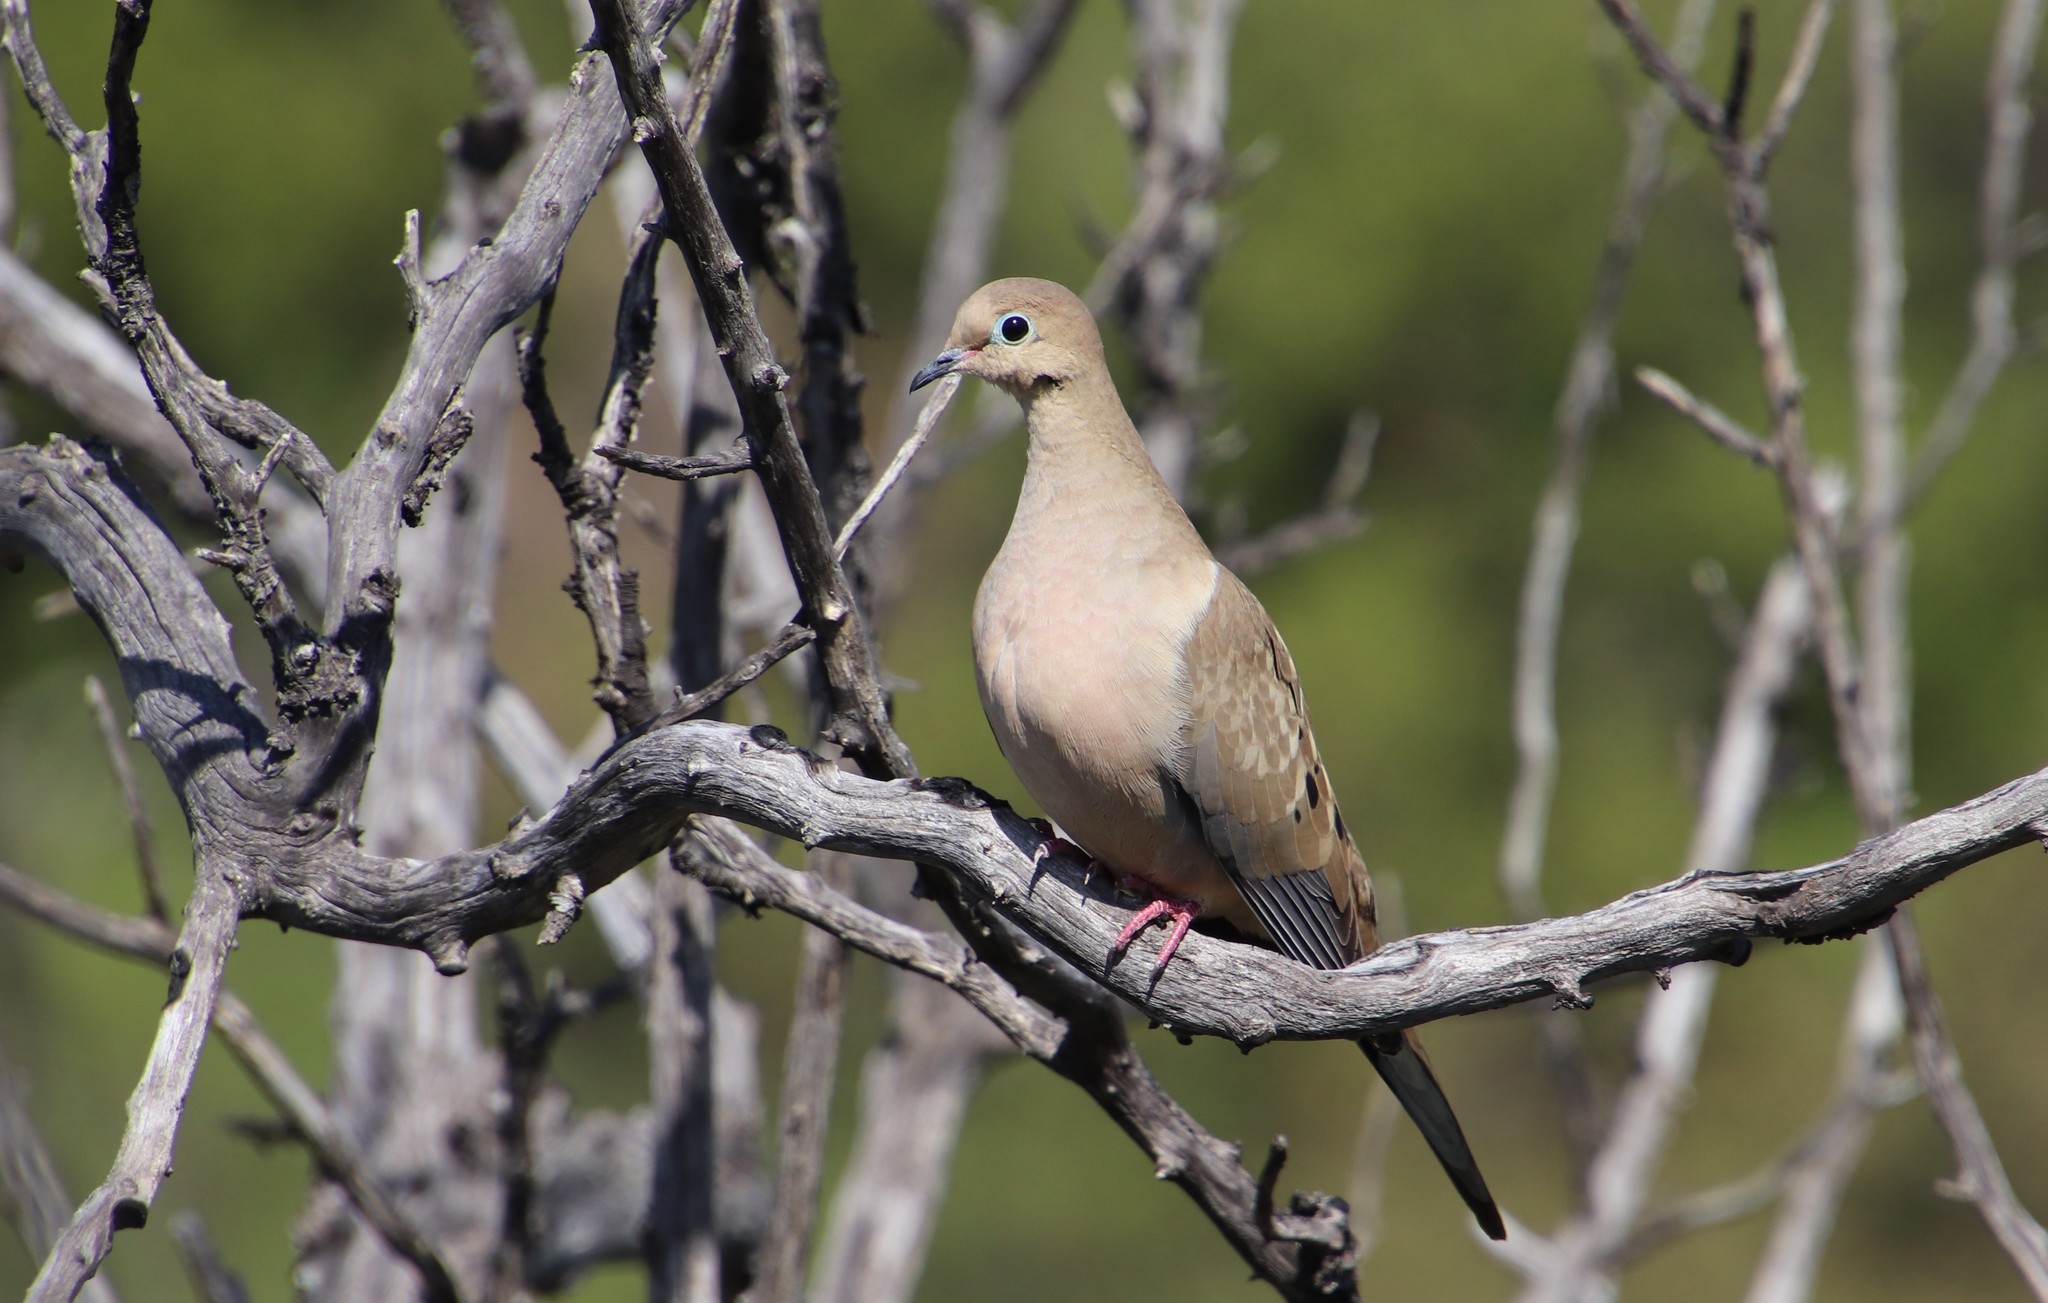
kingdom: Animalia
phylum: Chordata
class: Aves
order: Columbiformes
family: Columbidae
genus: Zenaida
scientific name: Zenaida macroura
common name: Mourning dove
